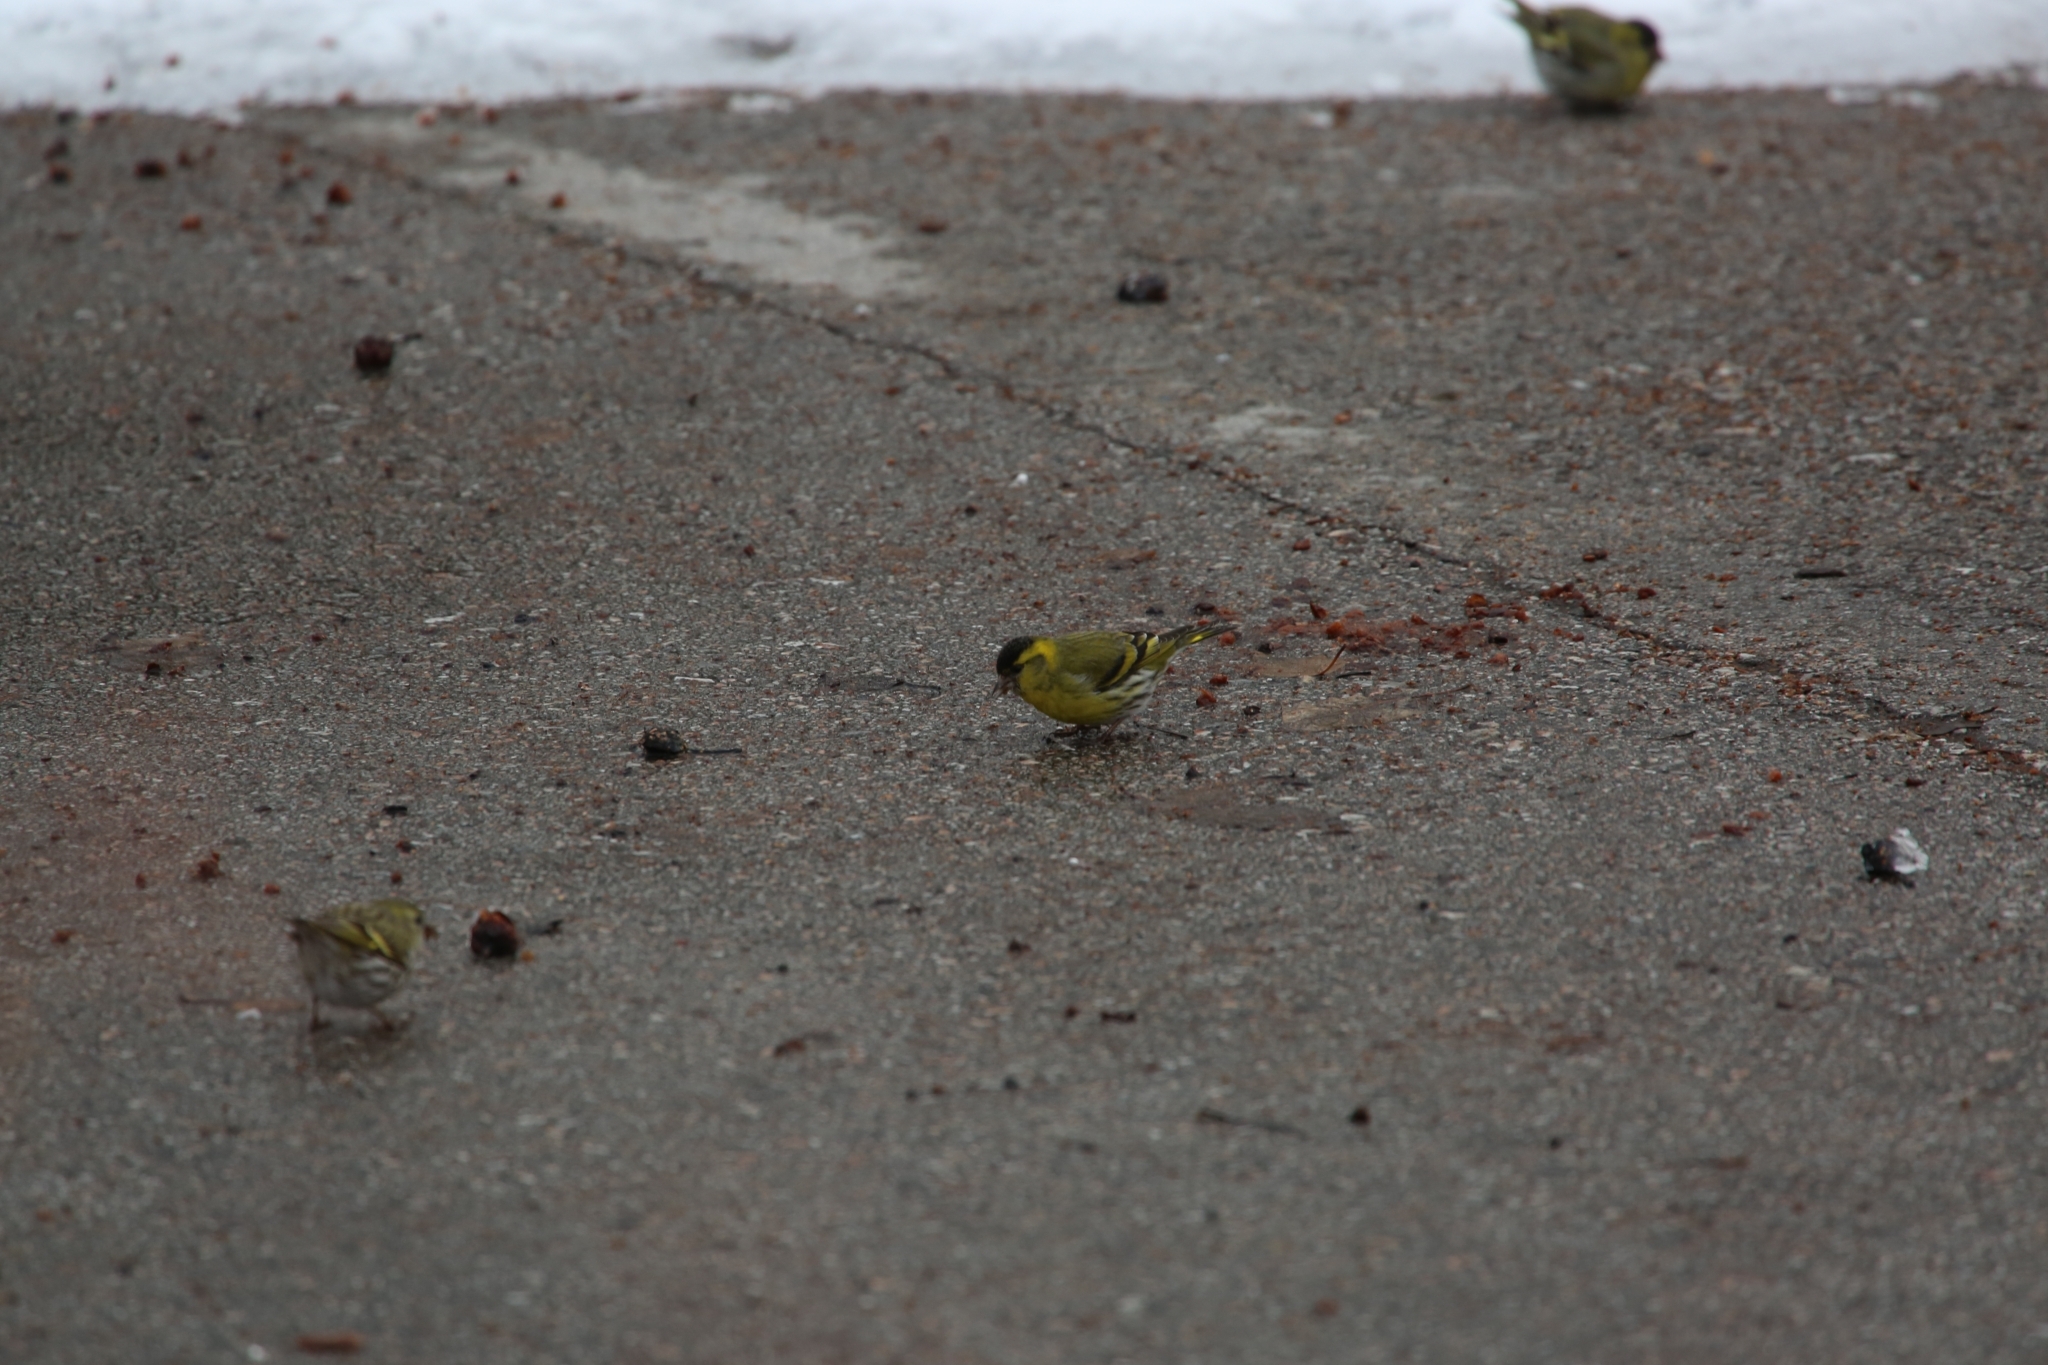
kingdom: Animalia
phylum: Chordata
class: Aves
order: Passeriformes
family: Fringillidae
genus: Spinus
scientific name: Spinus spinus
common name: Eurasian siskin
